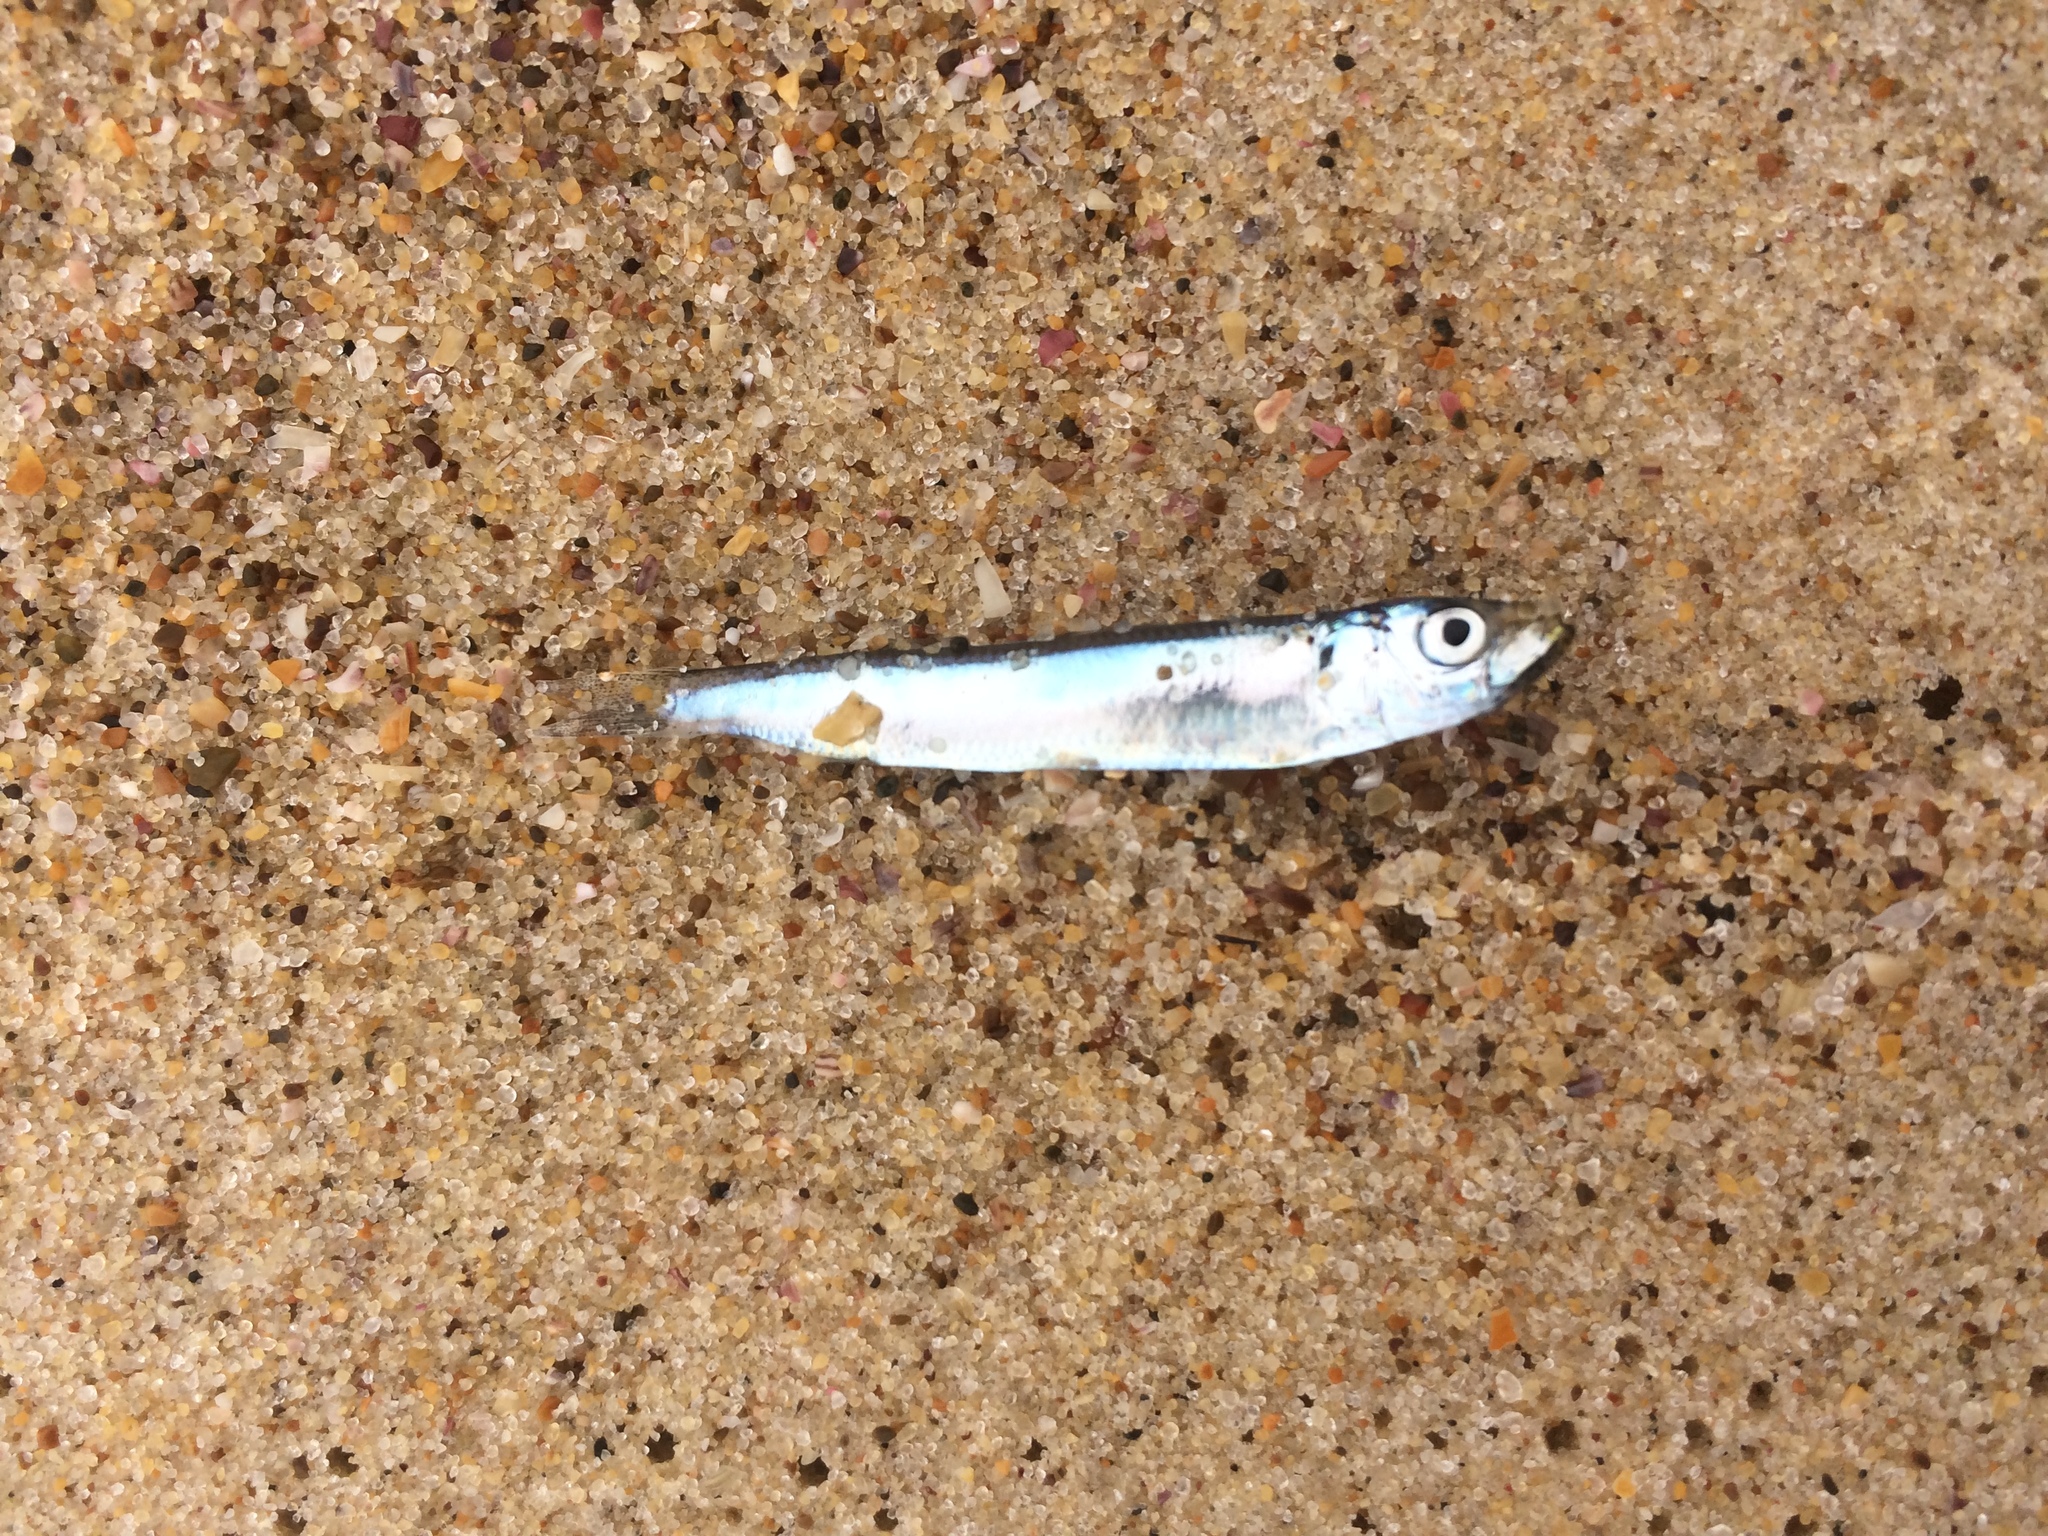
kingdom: Animalia
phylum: Chordata
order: Clupeiformes
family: Dussumieriidae
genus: Etrumeus
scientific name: Etrumeus sadina
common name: Red-eye round herring
